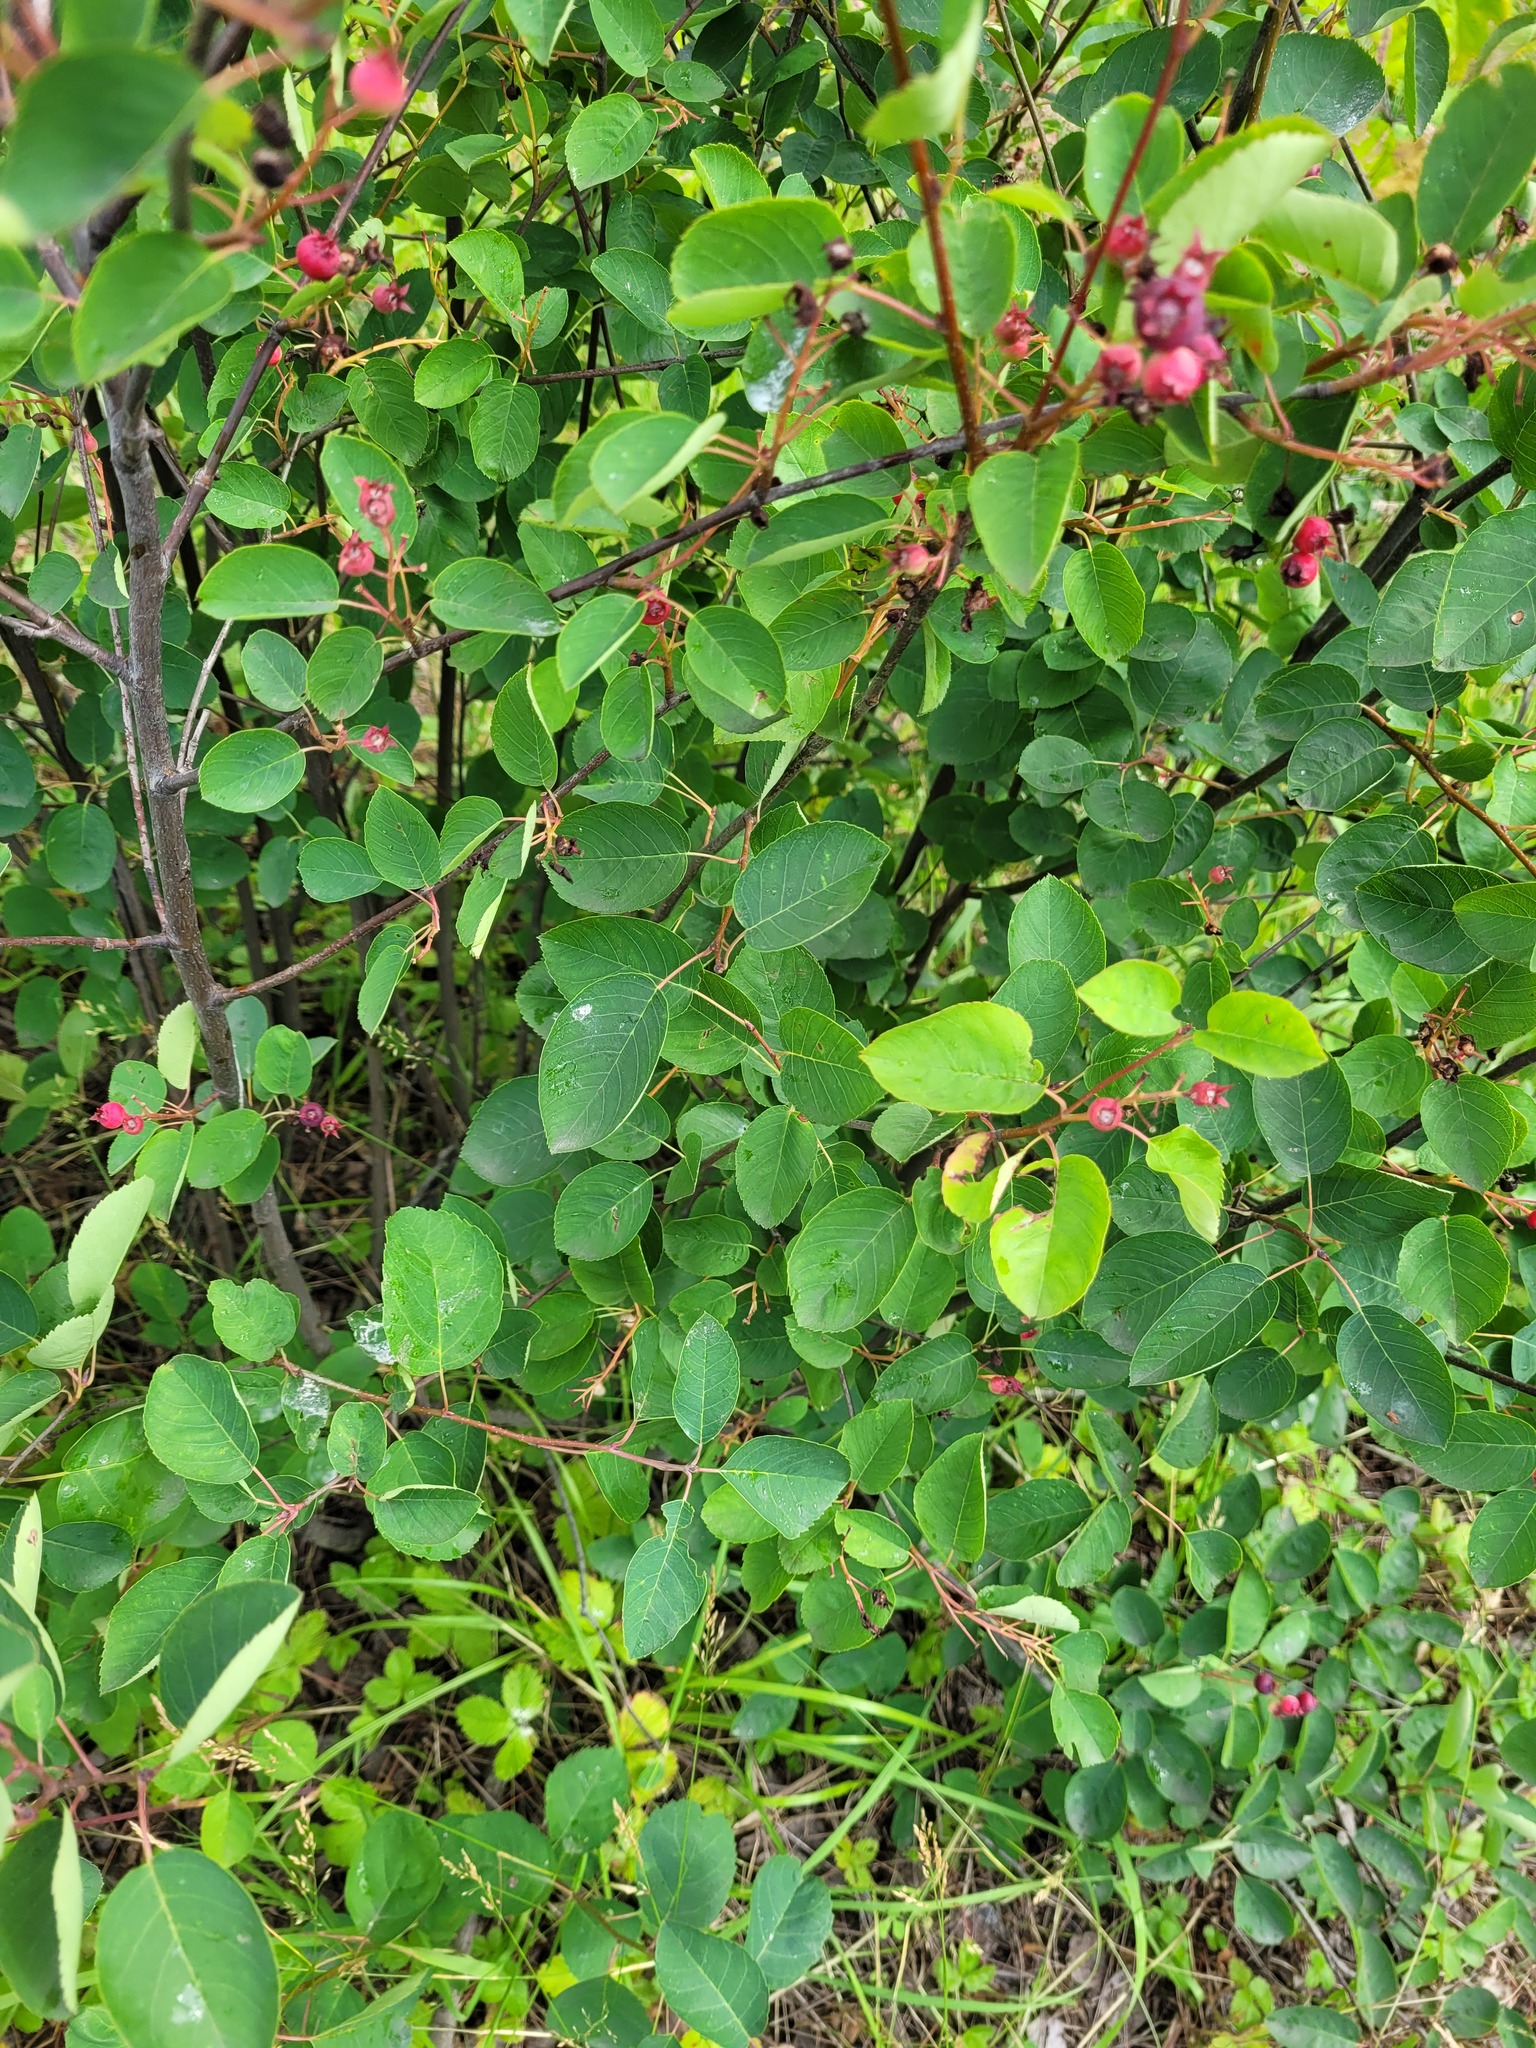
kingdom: Plantae
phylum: Tracheophyta
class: Magnoliopsida
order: Rosales
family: Rosaceae
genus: Amelanchier
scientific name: Amelanchier
